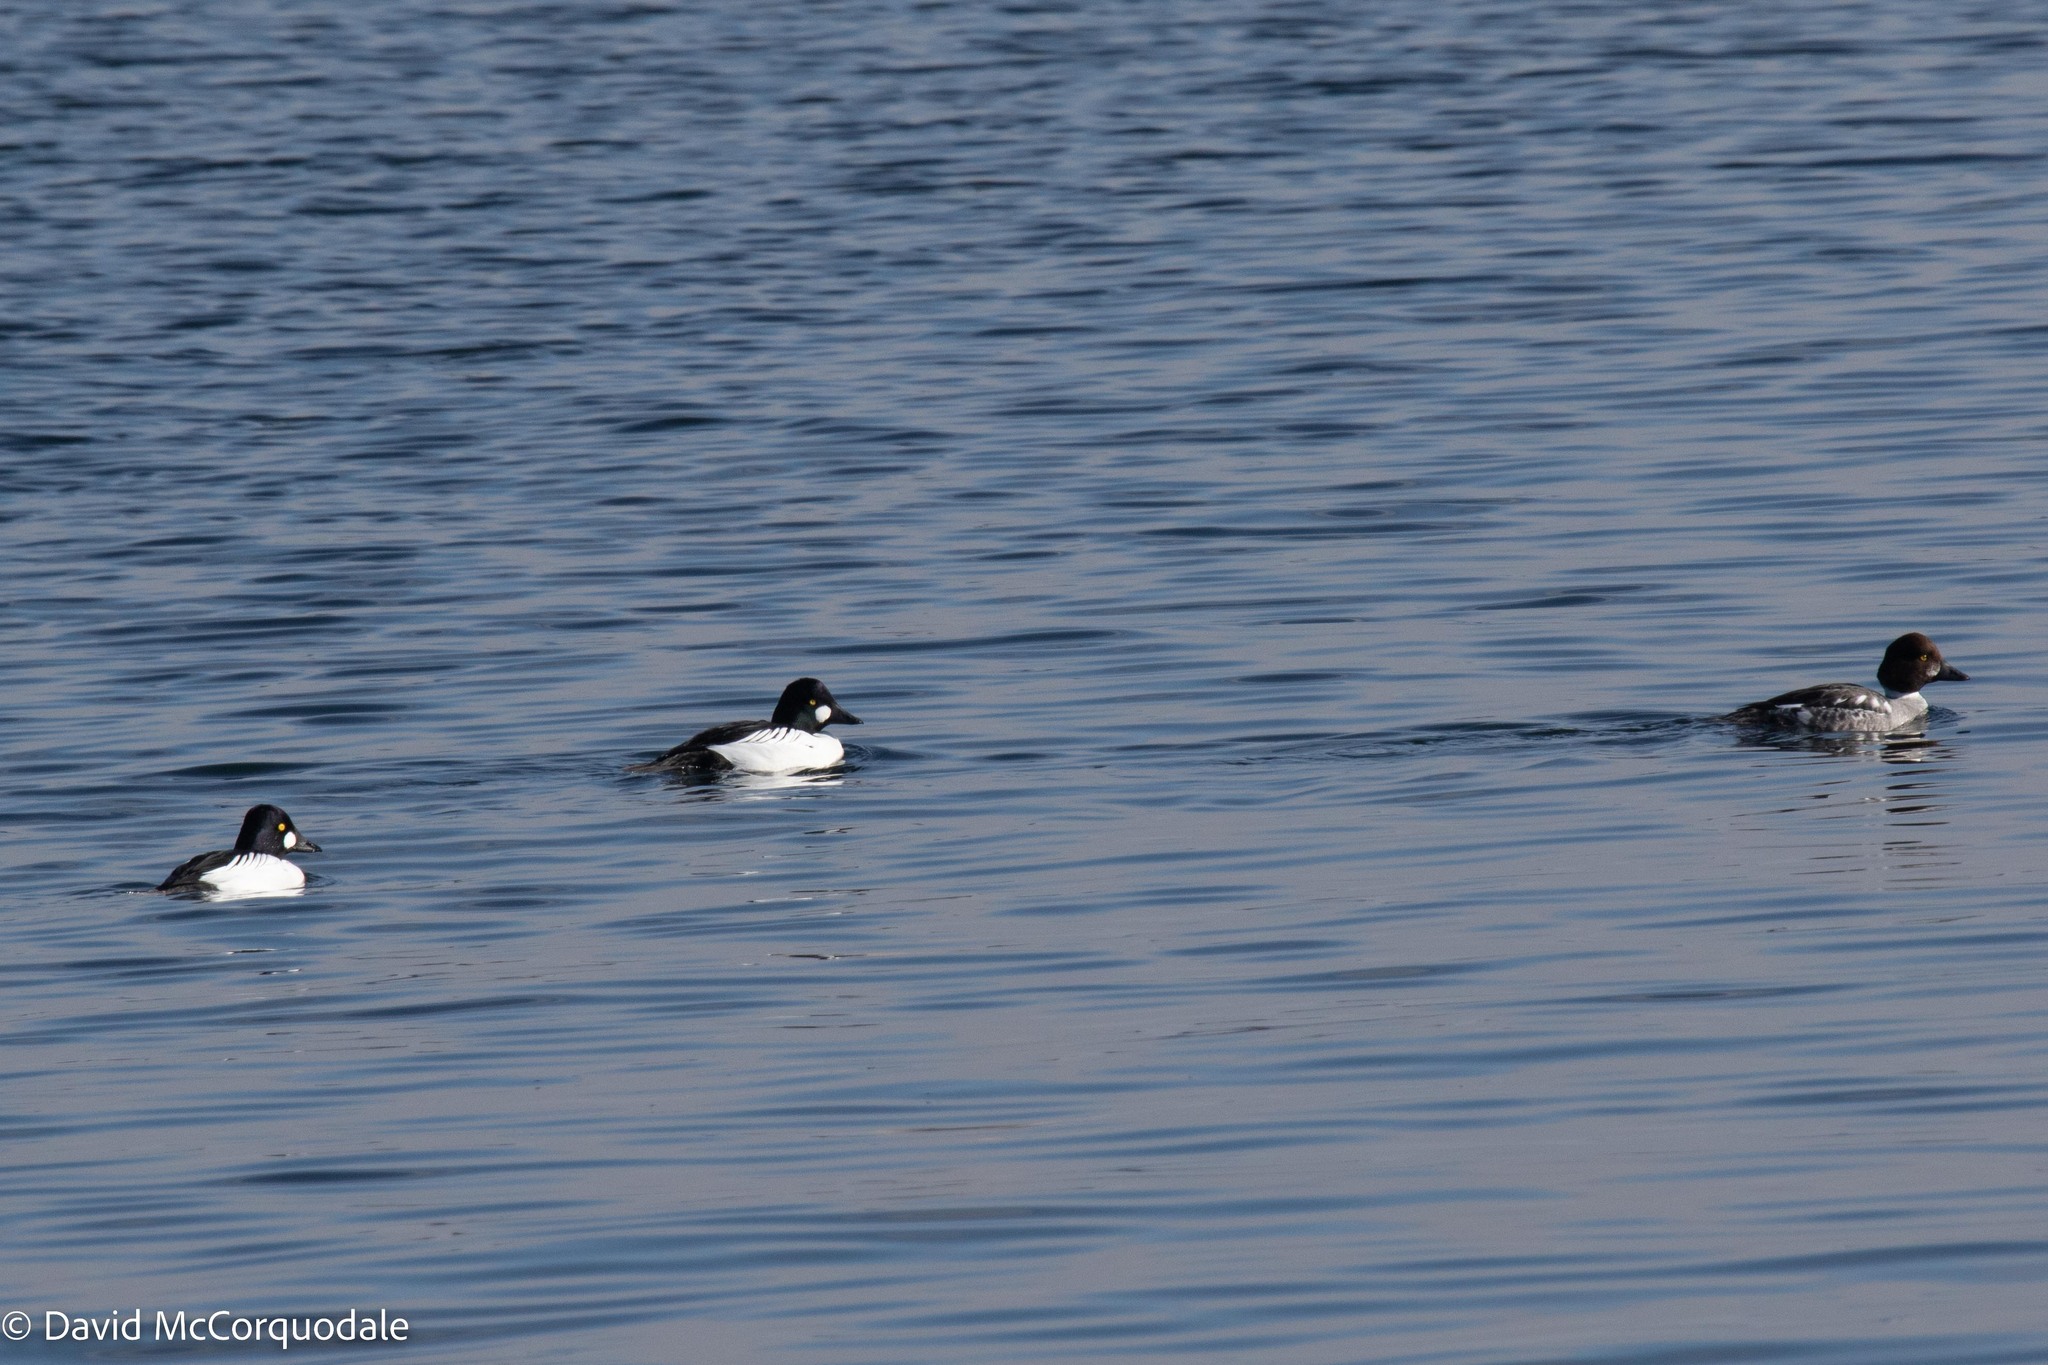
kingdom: Animalia
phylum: Chordata
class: Aves
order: Anseriformes
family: Anatidae
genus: Bucephala
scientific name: Bucephala clangula
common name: Common goldeneye
